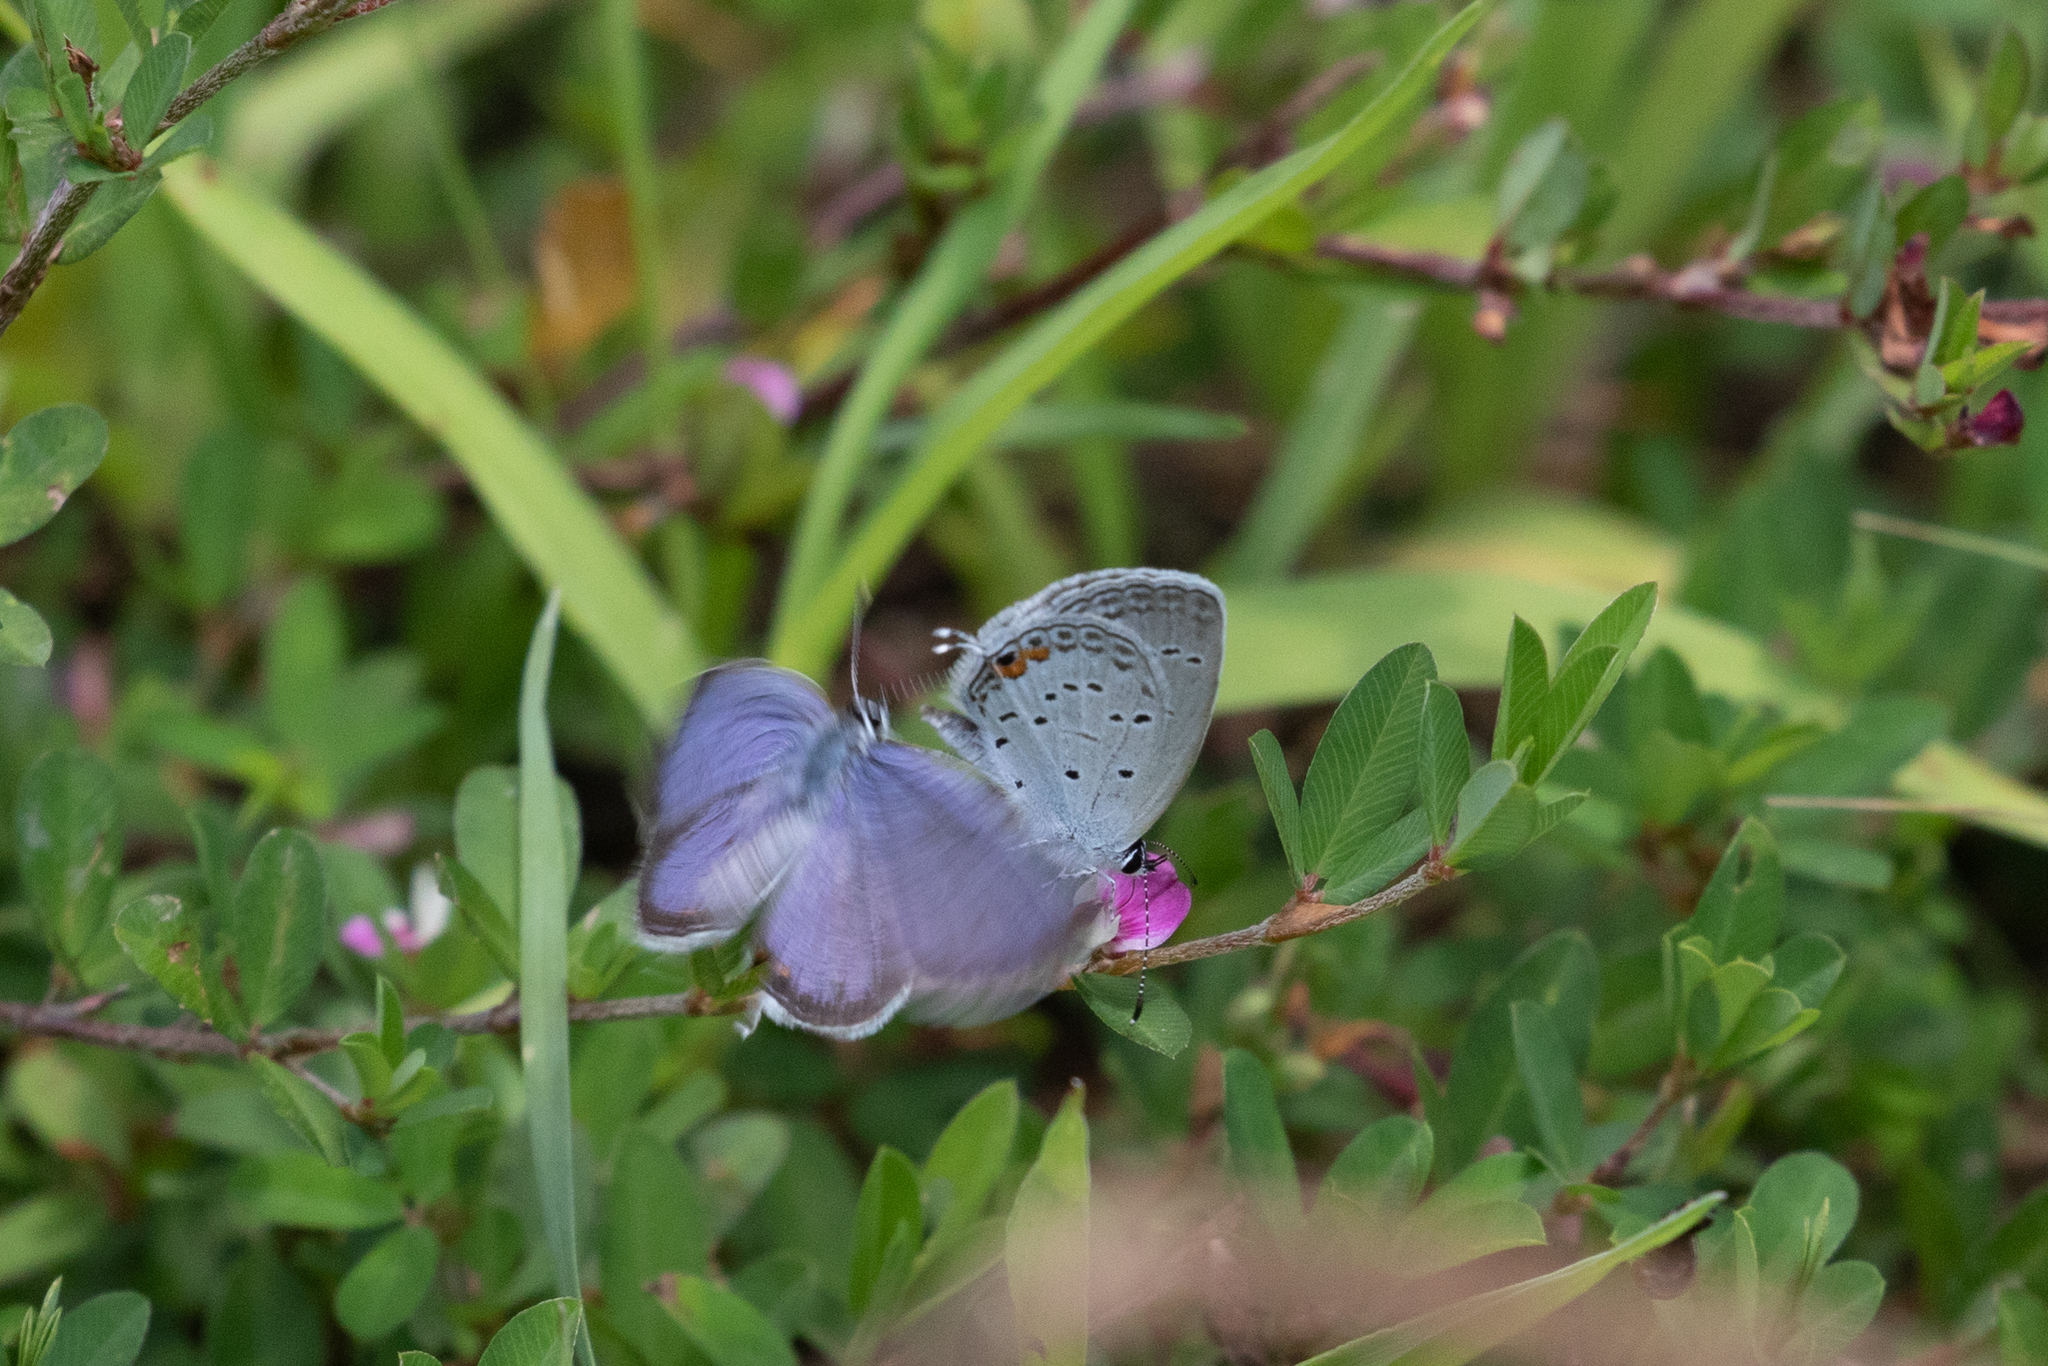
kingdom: Animalia
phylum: Arthropoda
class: Insecta
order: Lepidoptera
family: Lycaenidae
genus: Elkalyce
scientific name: Elkalyce comyntas
